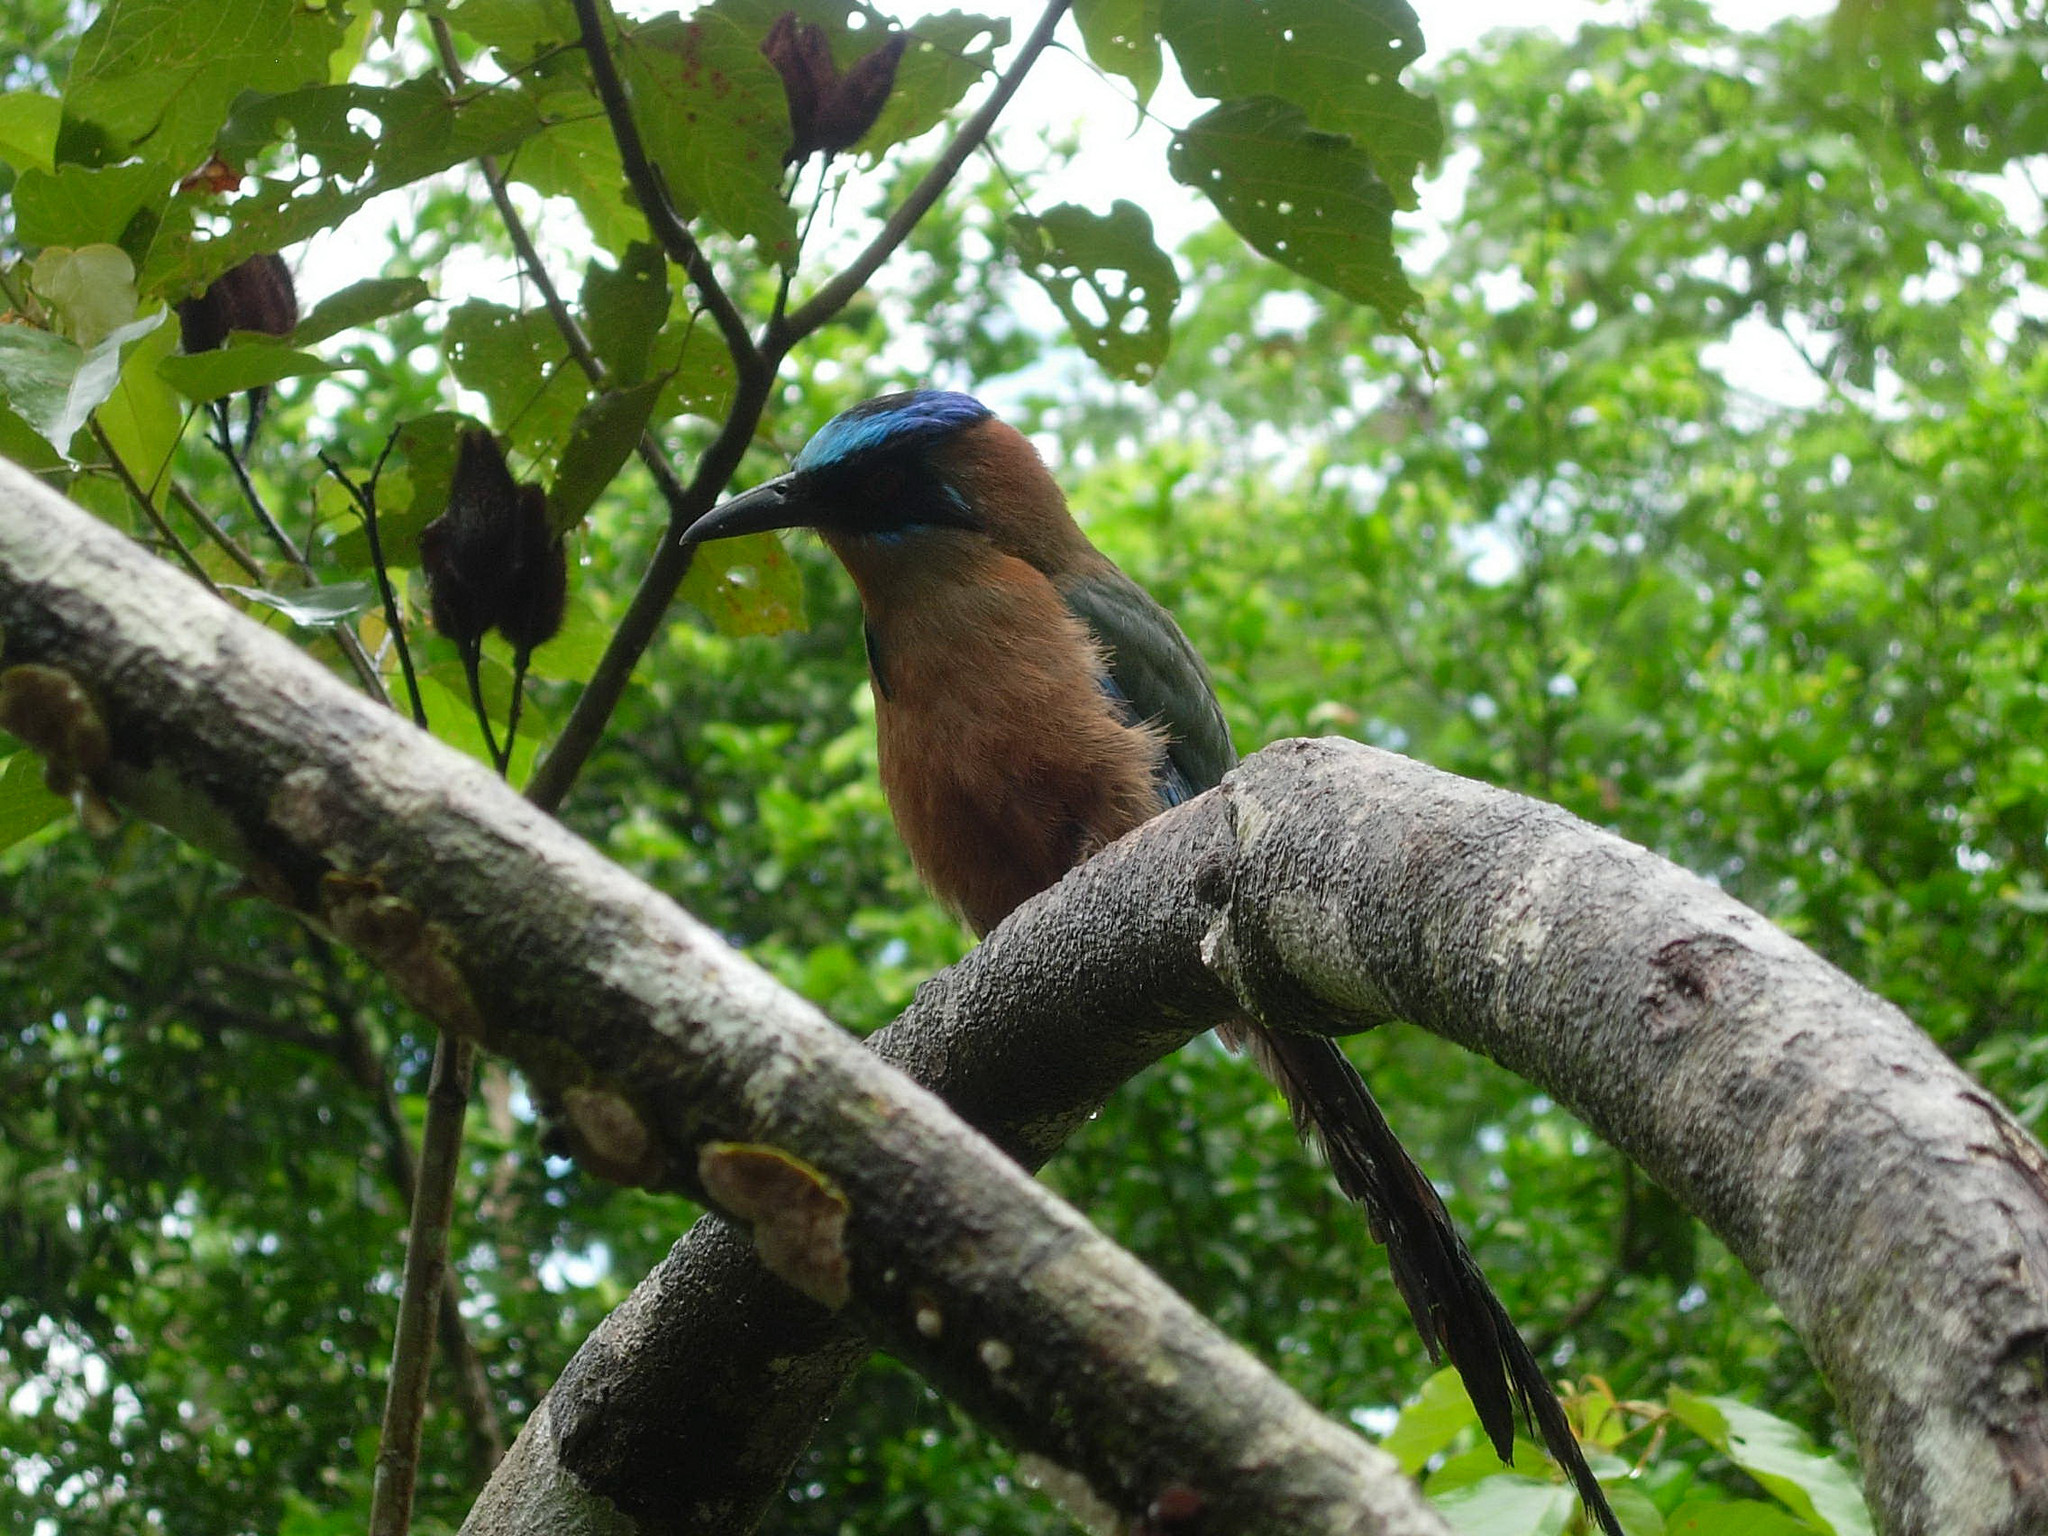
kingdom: Animalia
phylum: Chordata
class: Aves
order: Coraciiformes
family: Momotidae
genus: Momotus
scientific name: Momotus momota
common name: Amazonian motmot
